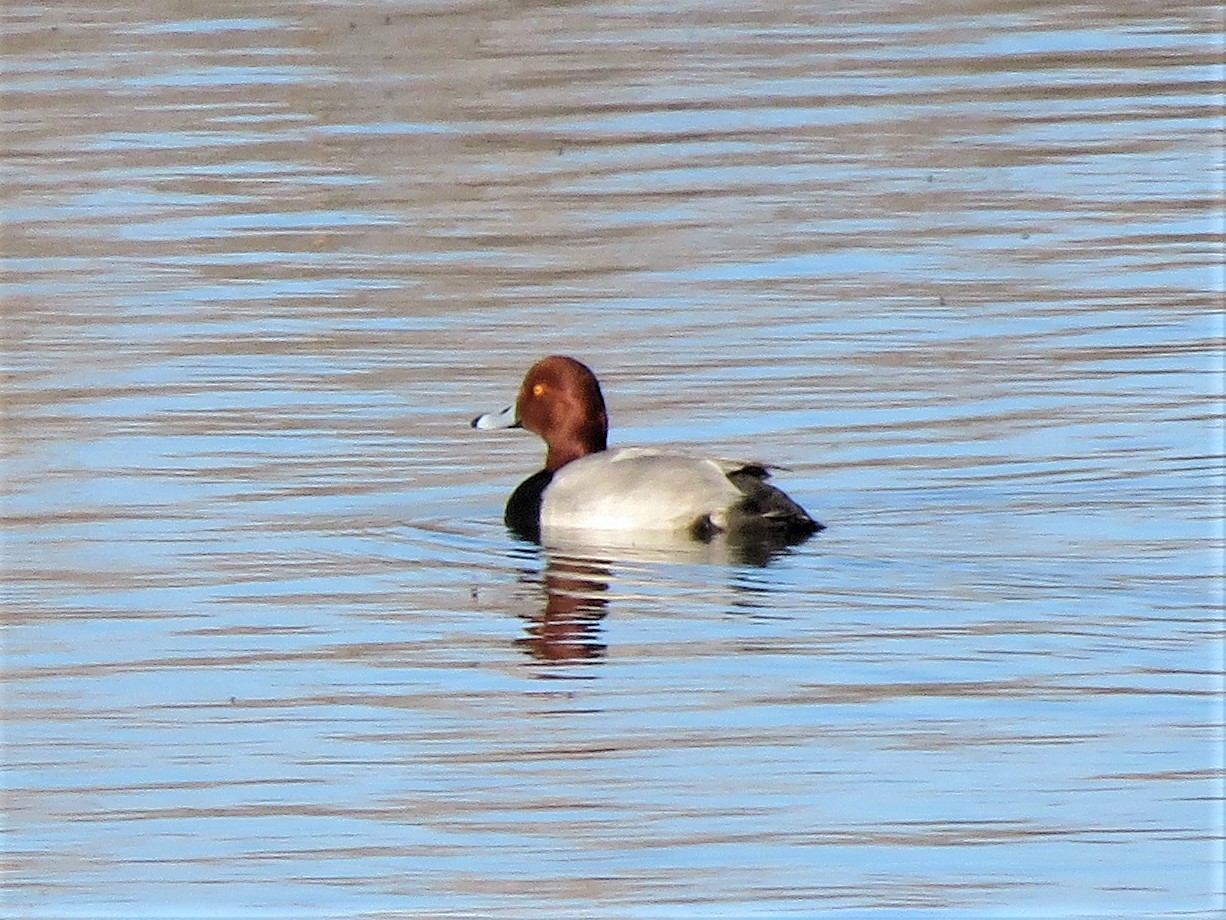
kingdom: Animalia
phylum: Chordata
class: Aves
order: Anseriformes
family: Anatidae
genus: Aythya
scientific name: Aythya americana
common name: Redhead
